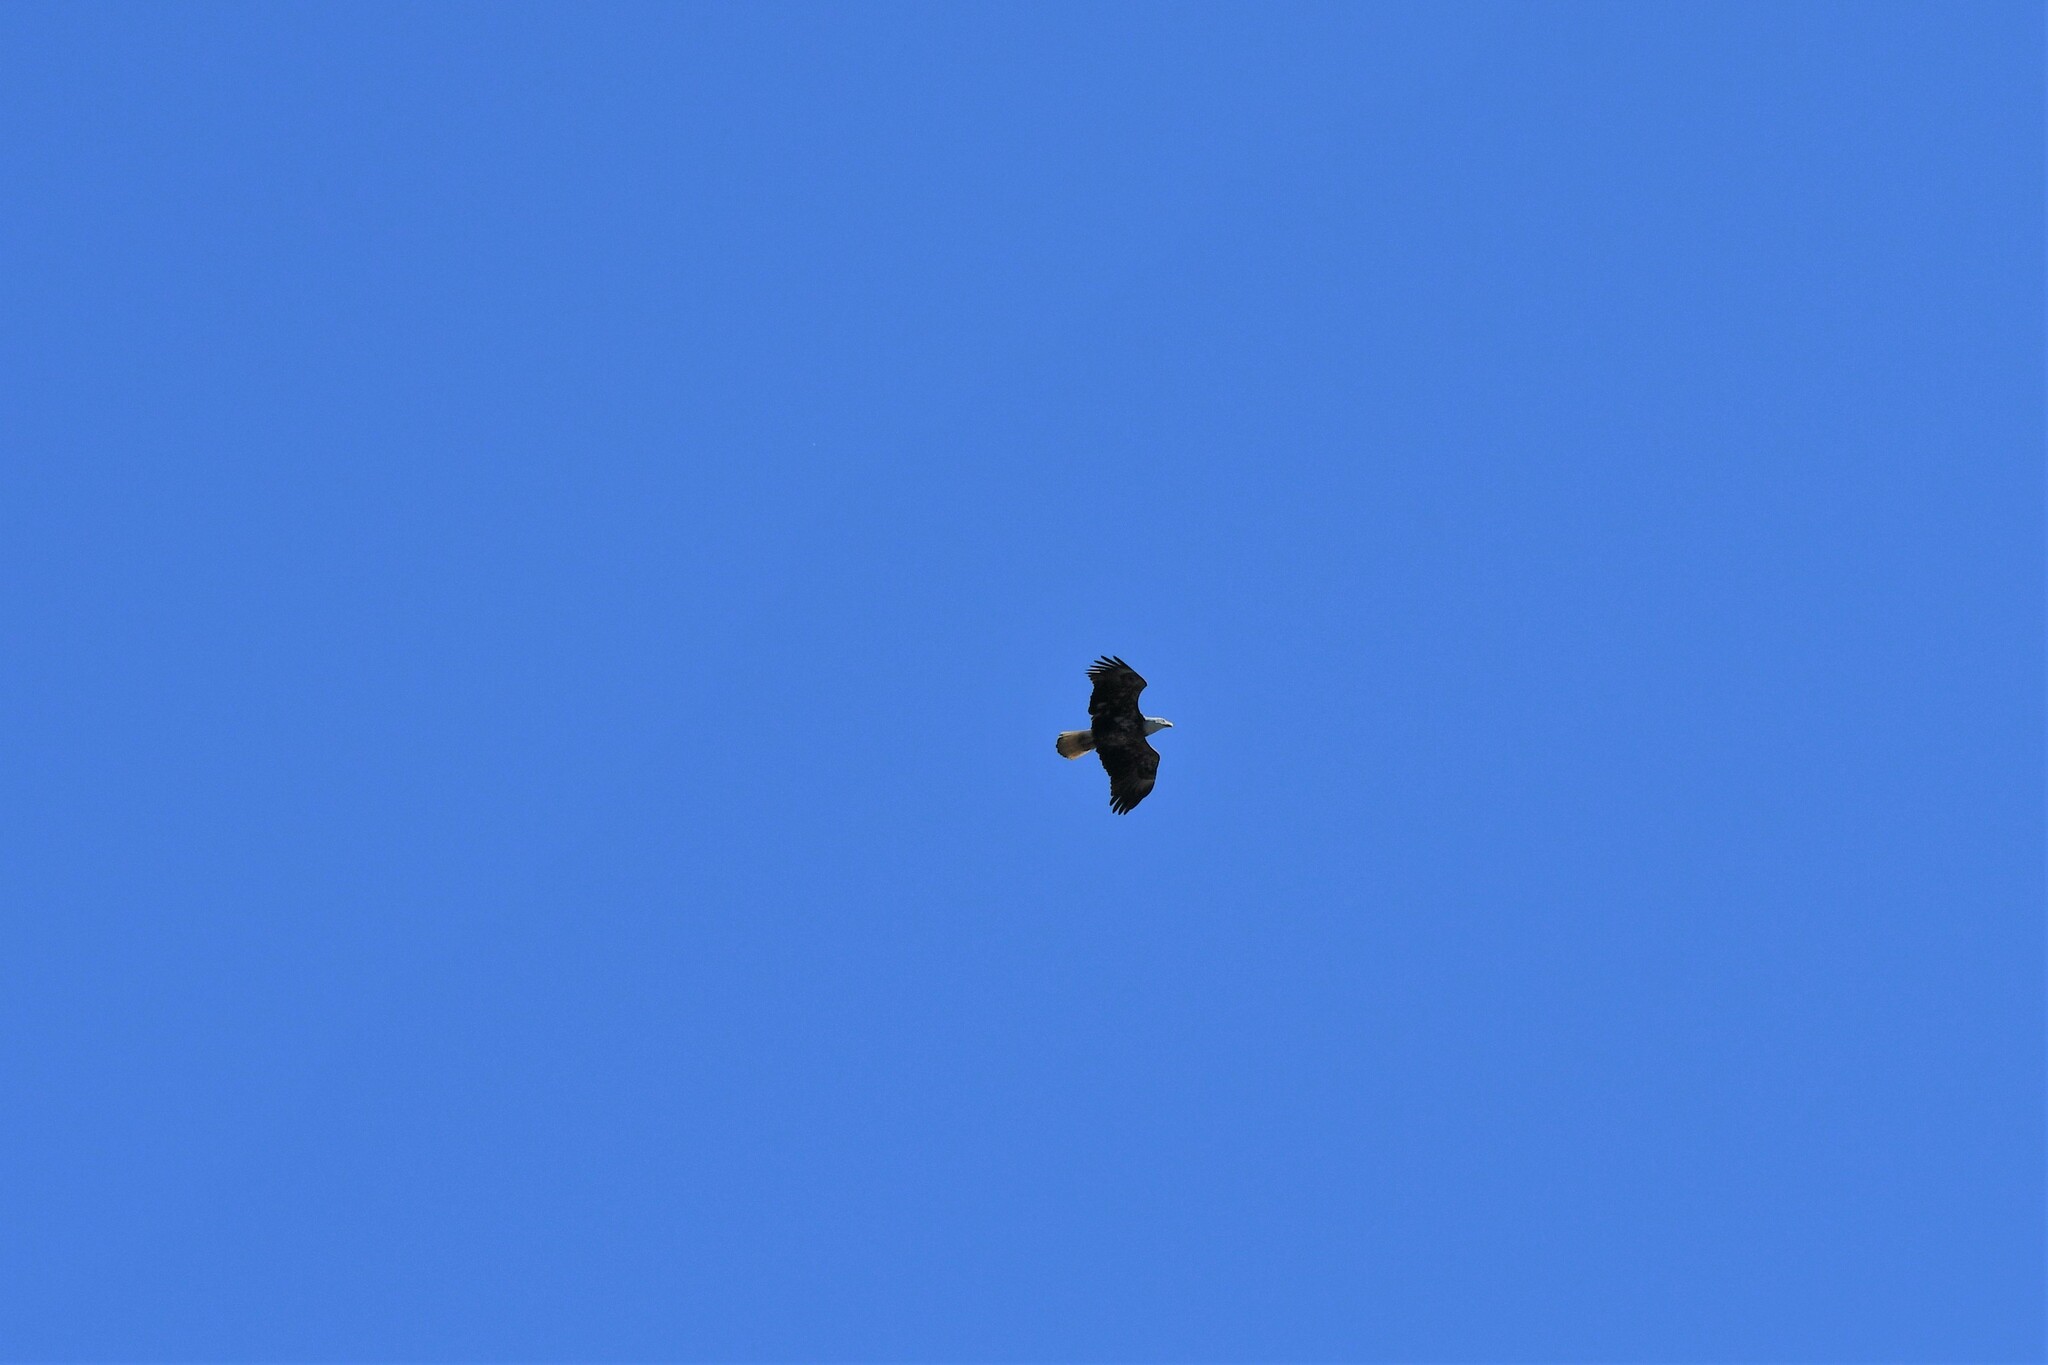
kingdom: Animalia
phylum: Chordata
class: Aves
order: Accipitriformes
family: Accipitridae
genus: Haliaeetus
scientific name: Haliaeetus leucocephalus
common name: Bald eagle
